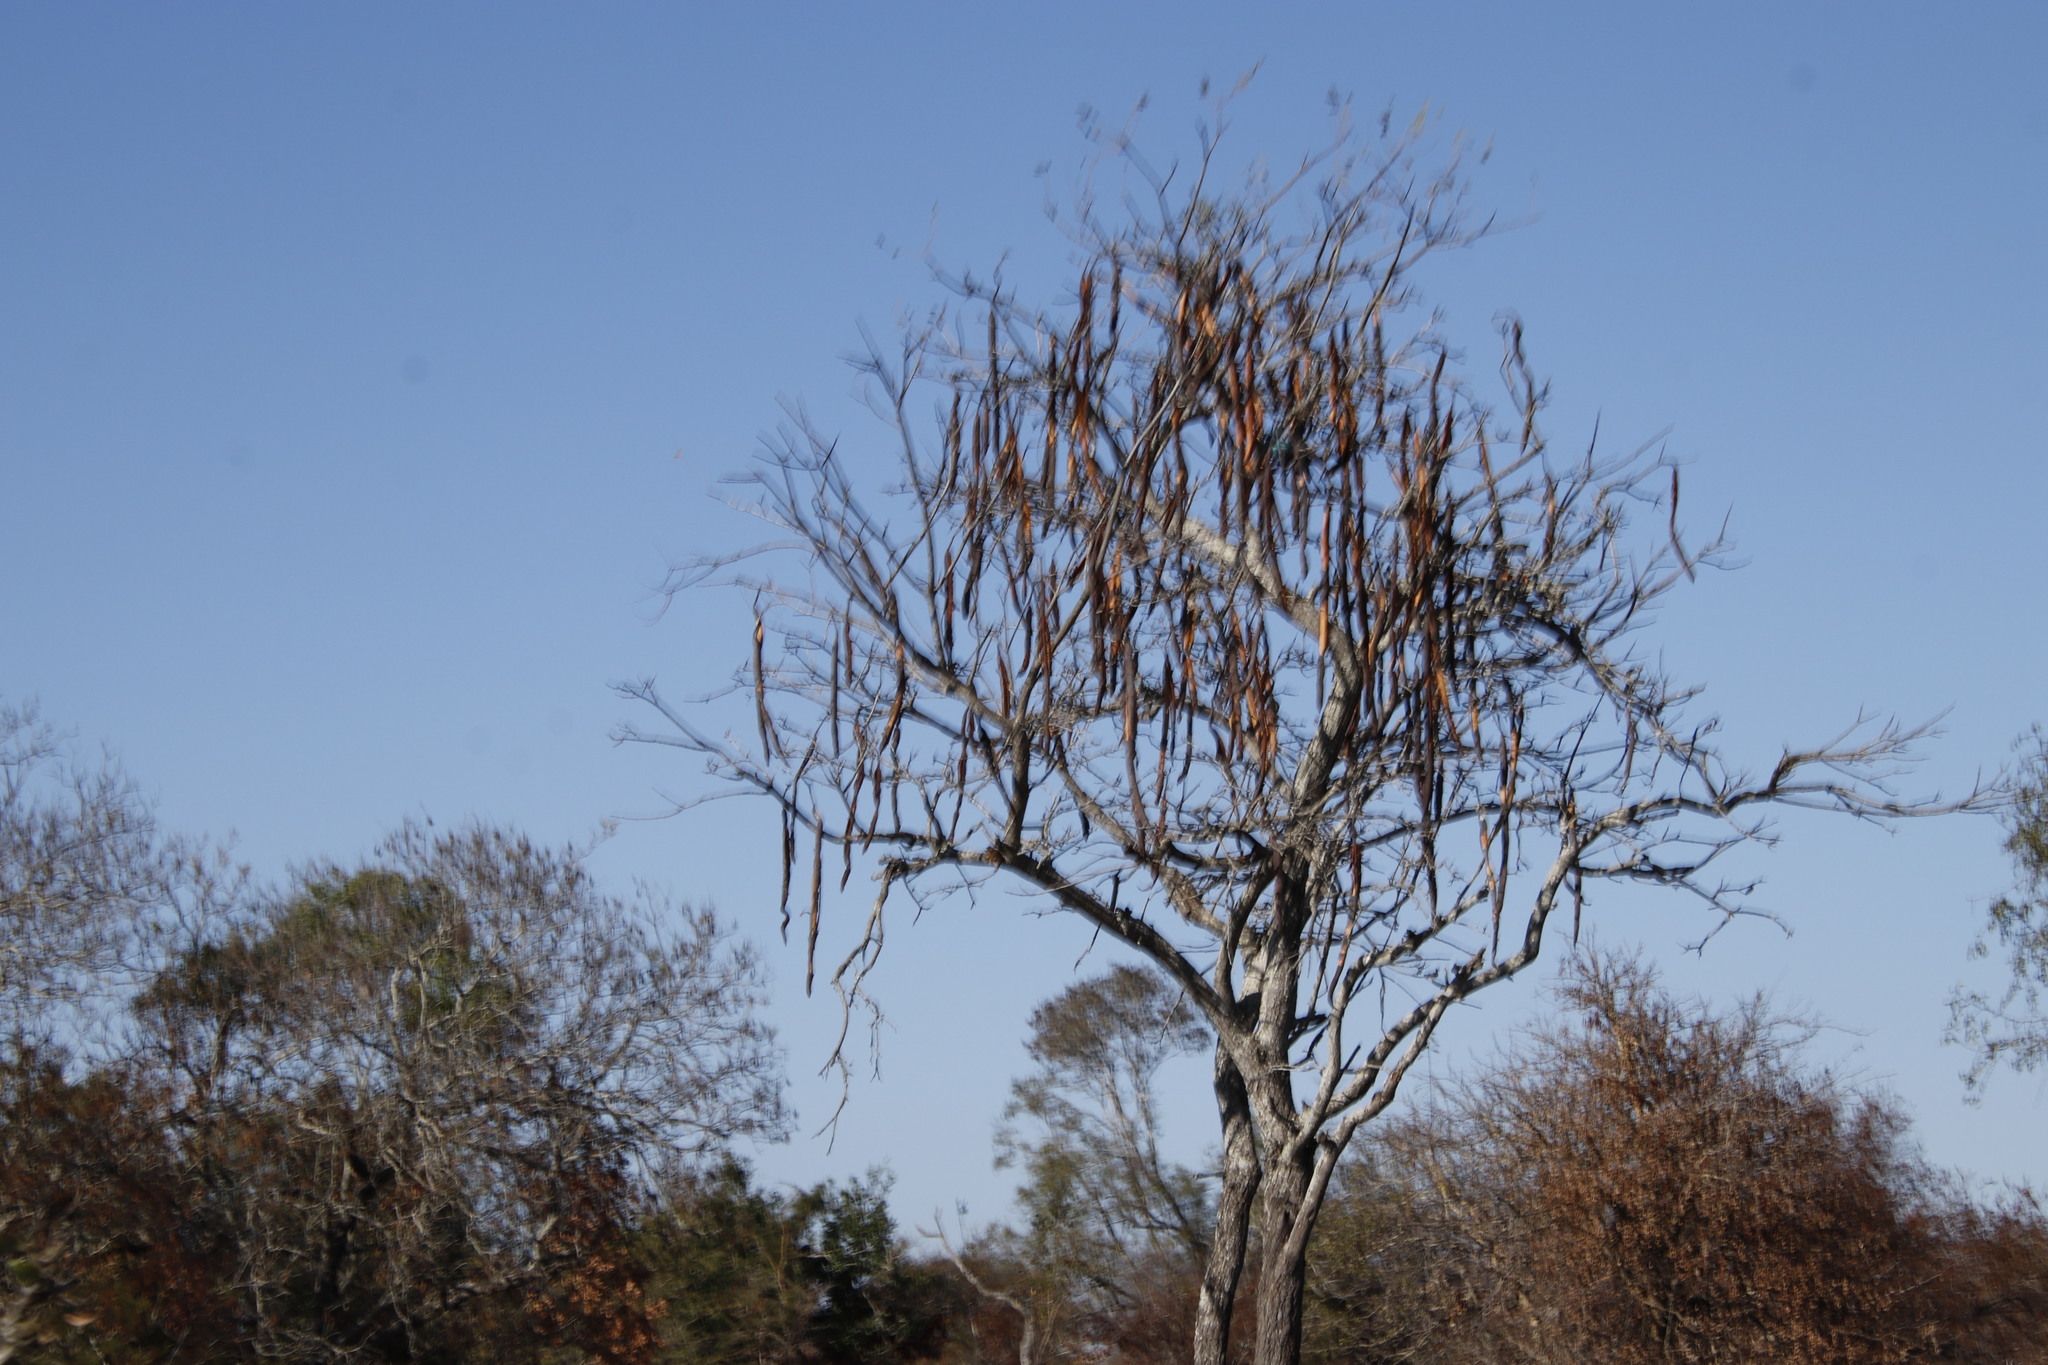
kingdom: Plantae
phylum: Tracheophyta
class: Magnoliopsida
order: Fabales
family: Fabaceae
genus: Cassia
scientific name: Cassia abbreviata
